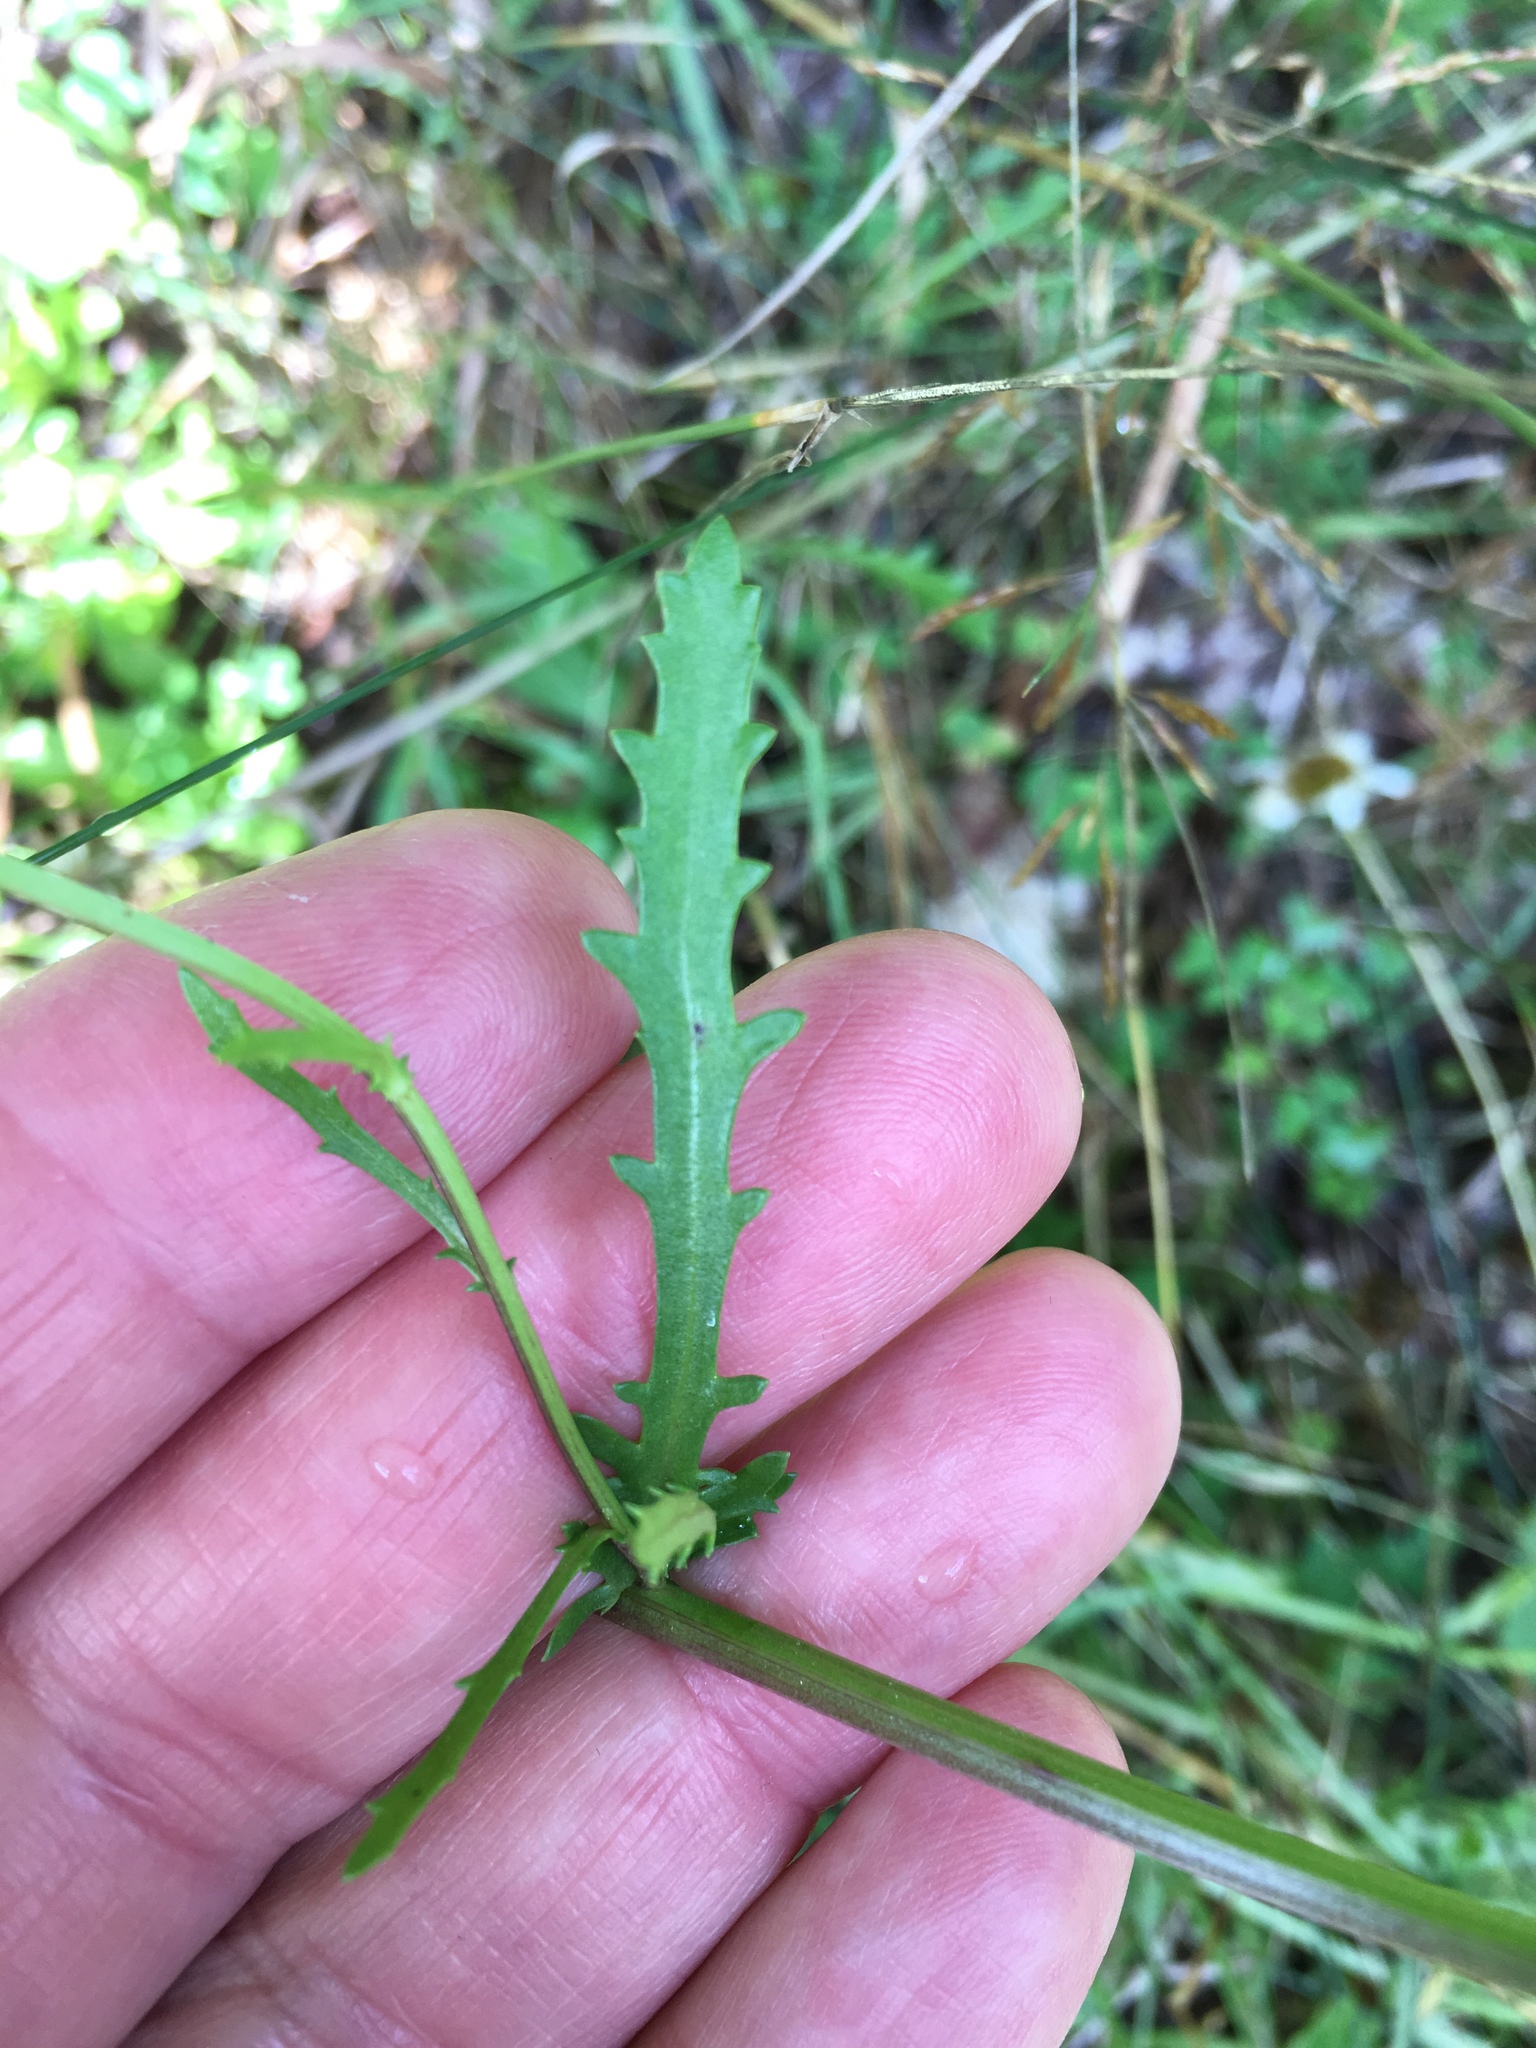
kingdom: Plantae
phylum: Tracheophyta
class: Magnoliopsida
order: Asterales
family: Asteraceae
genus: Leucanthemum
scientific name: Leucanthemum vulgare
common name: Oxeye daisy
